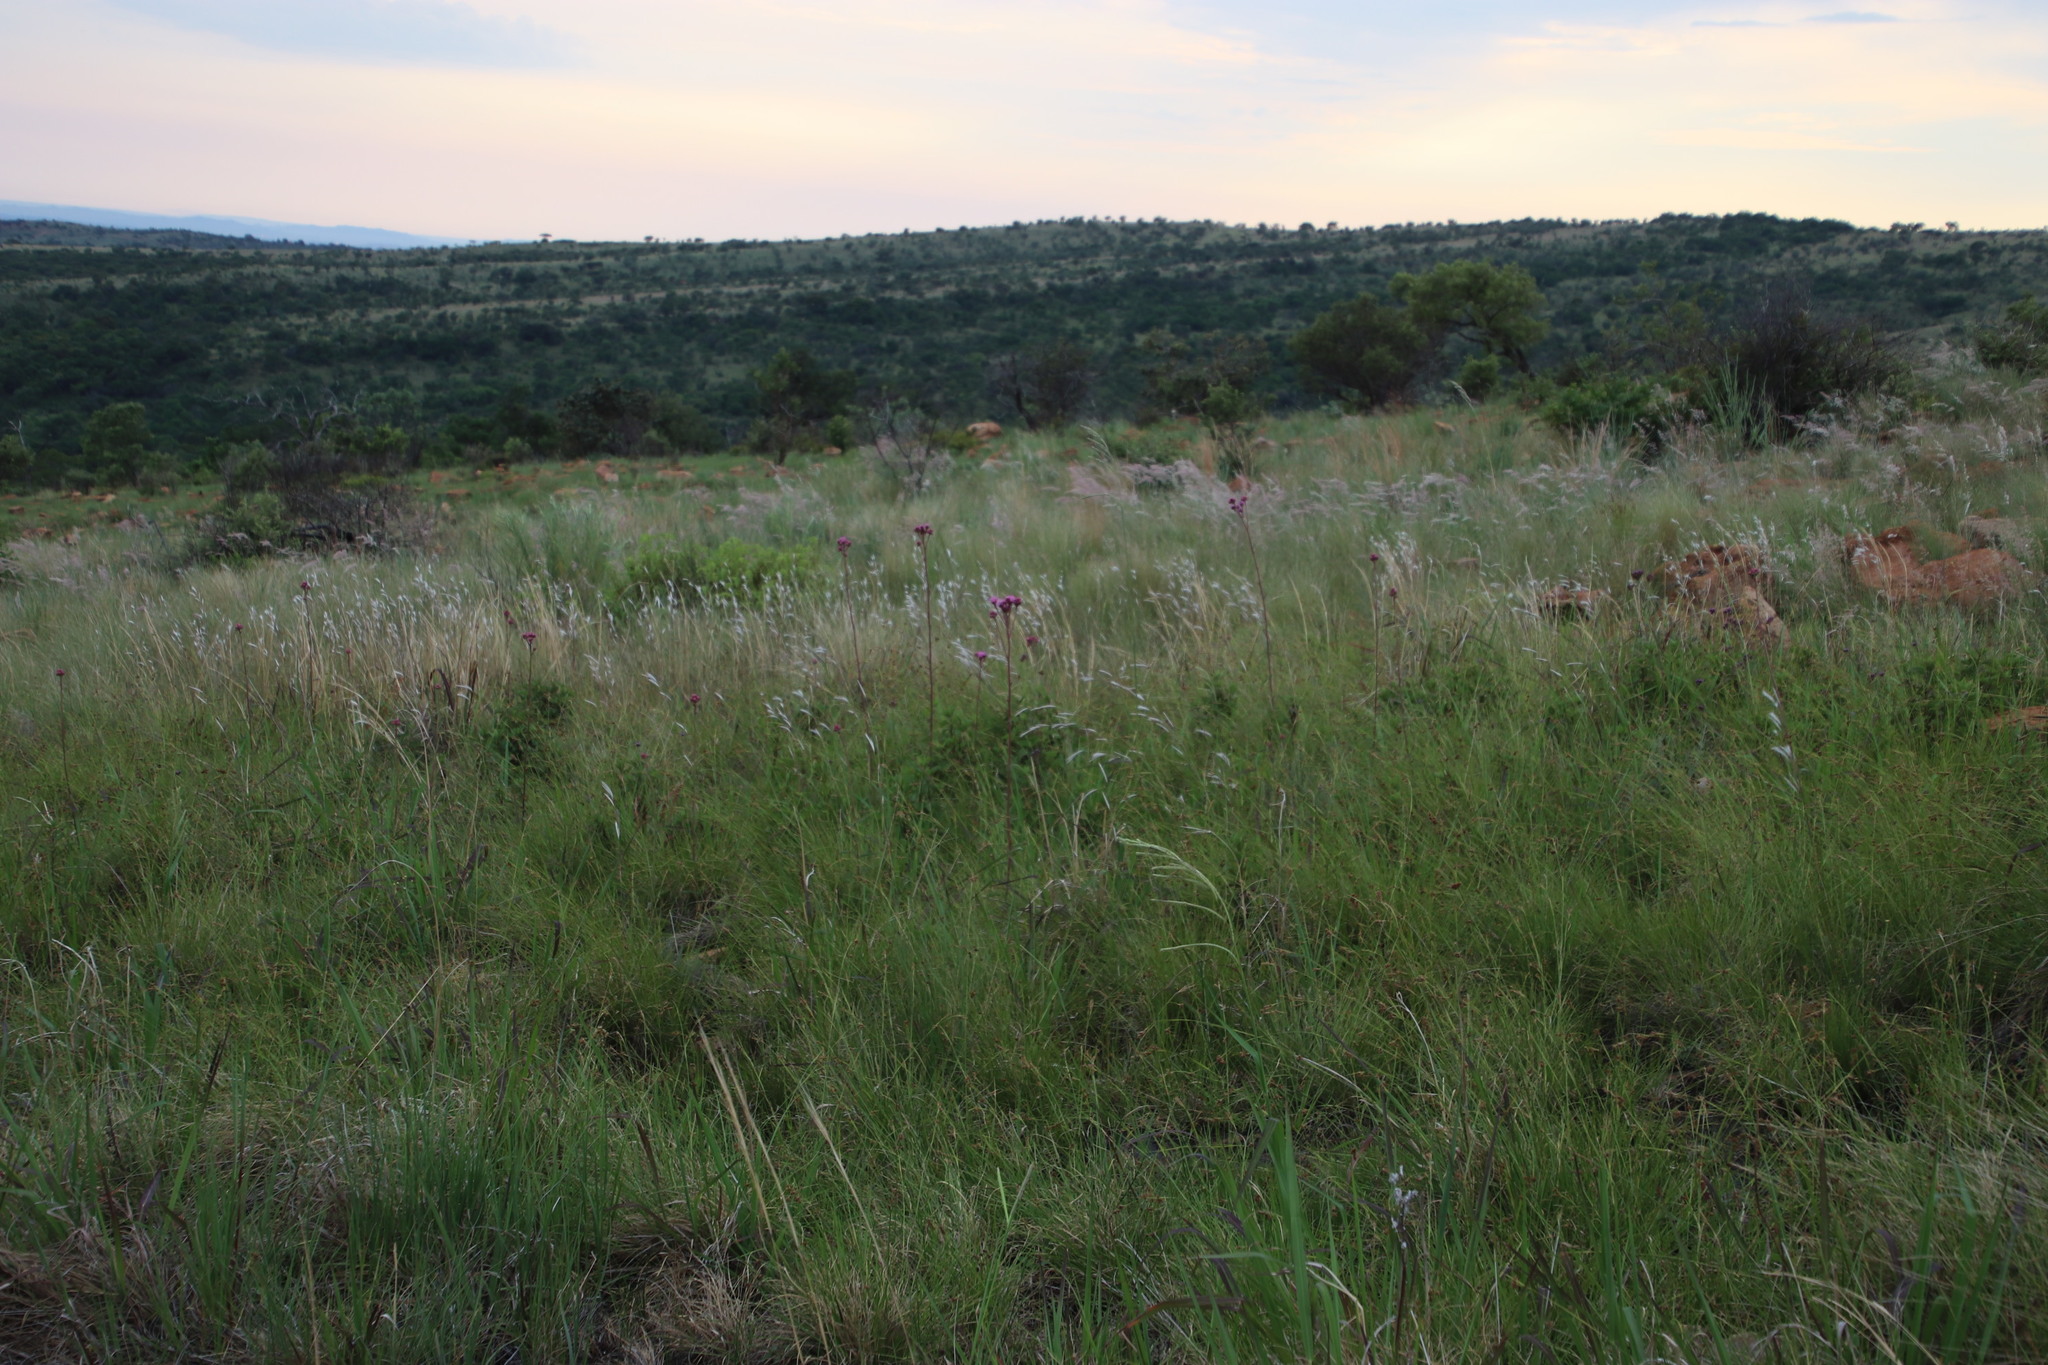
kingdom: Plantae
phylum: Tracheophyta
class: Magnoliopsida
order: Asterales
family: Asteraceae
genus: Campuloclinium
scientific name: Campuloclinium macrocephalum
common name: Pompomweed
